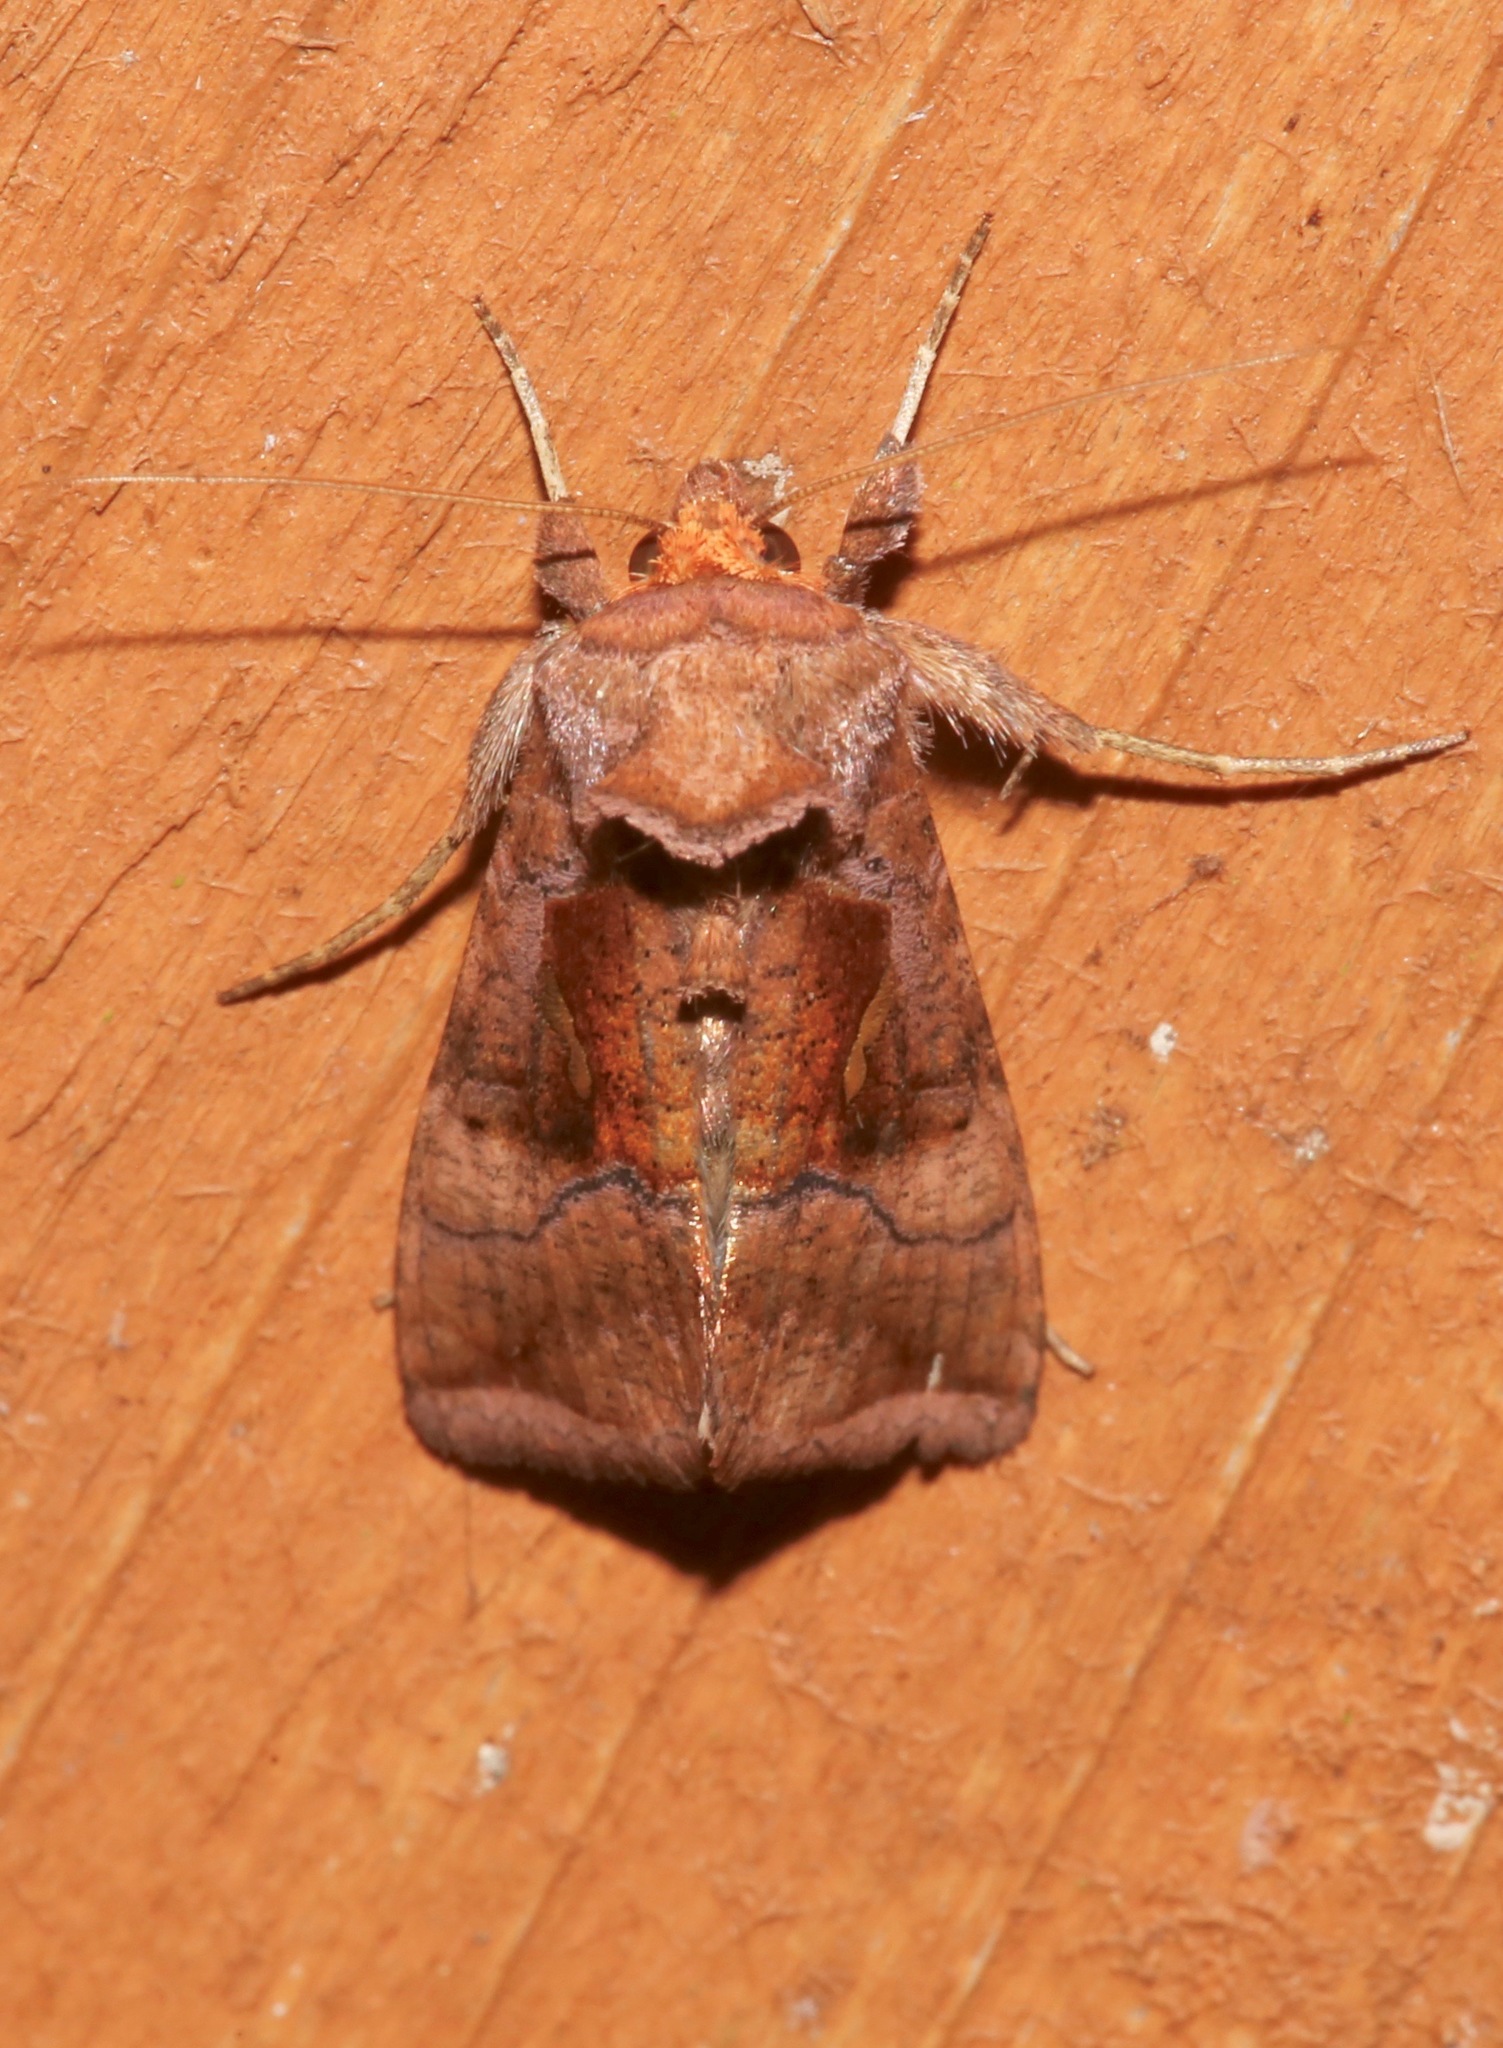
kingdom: Animalia
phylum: Arthropoda
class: Insecta
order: Lepidoptera
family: Noctuidae
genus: Enigmogramma
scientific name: Enigmogramma basigera
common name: Pink-washed looper moth
